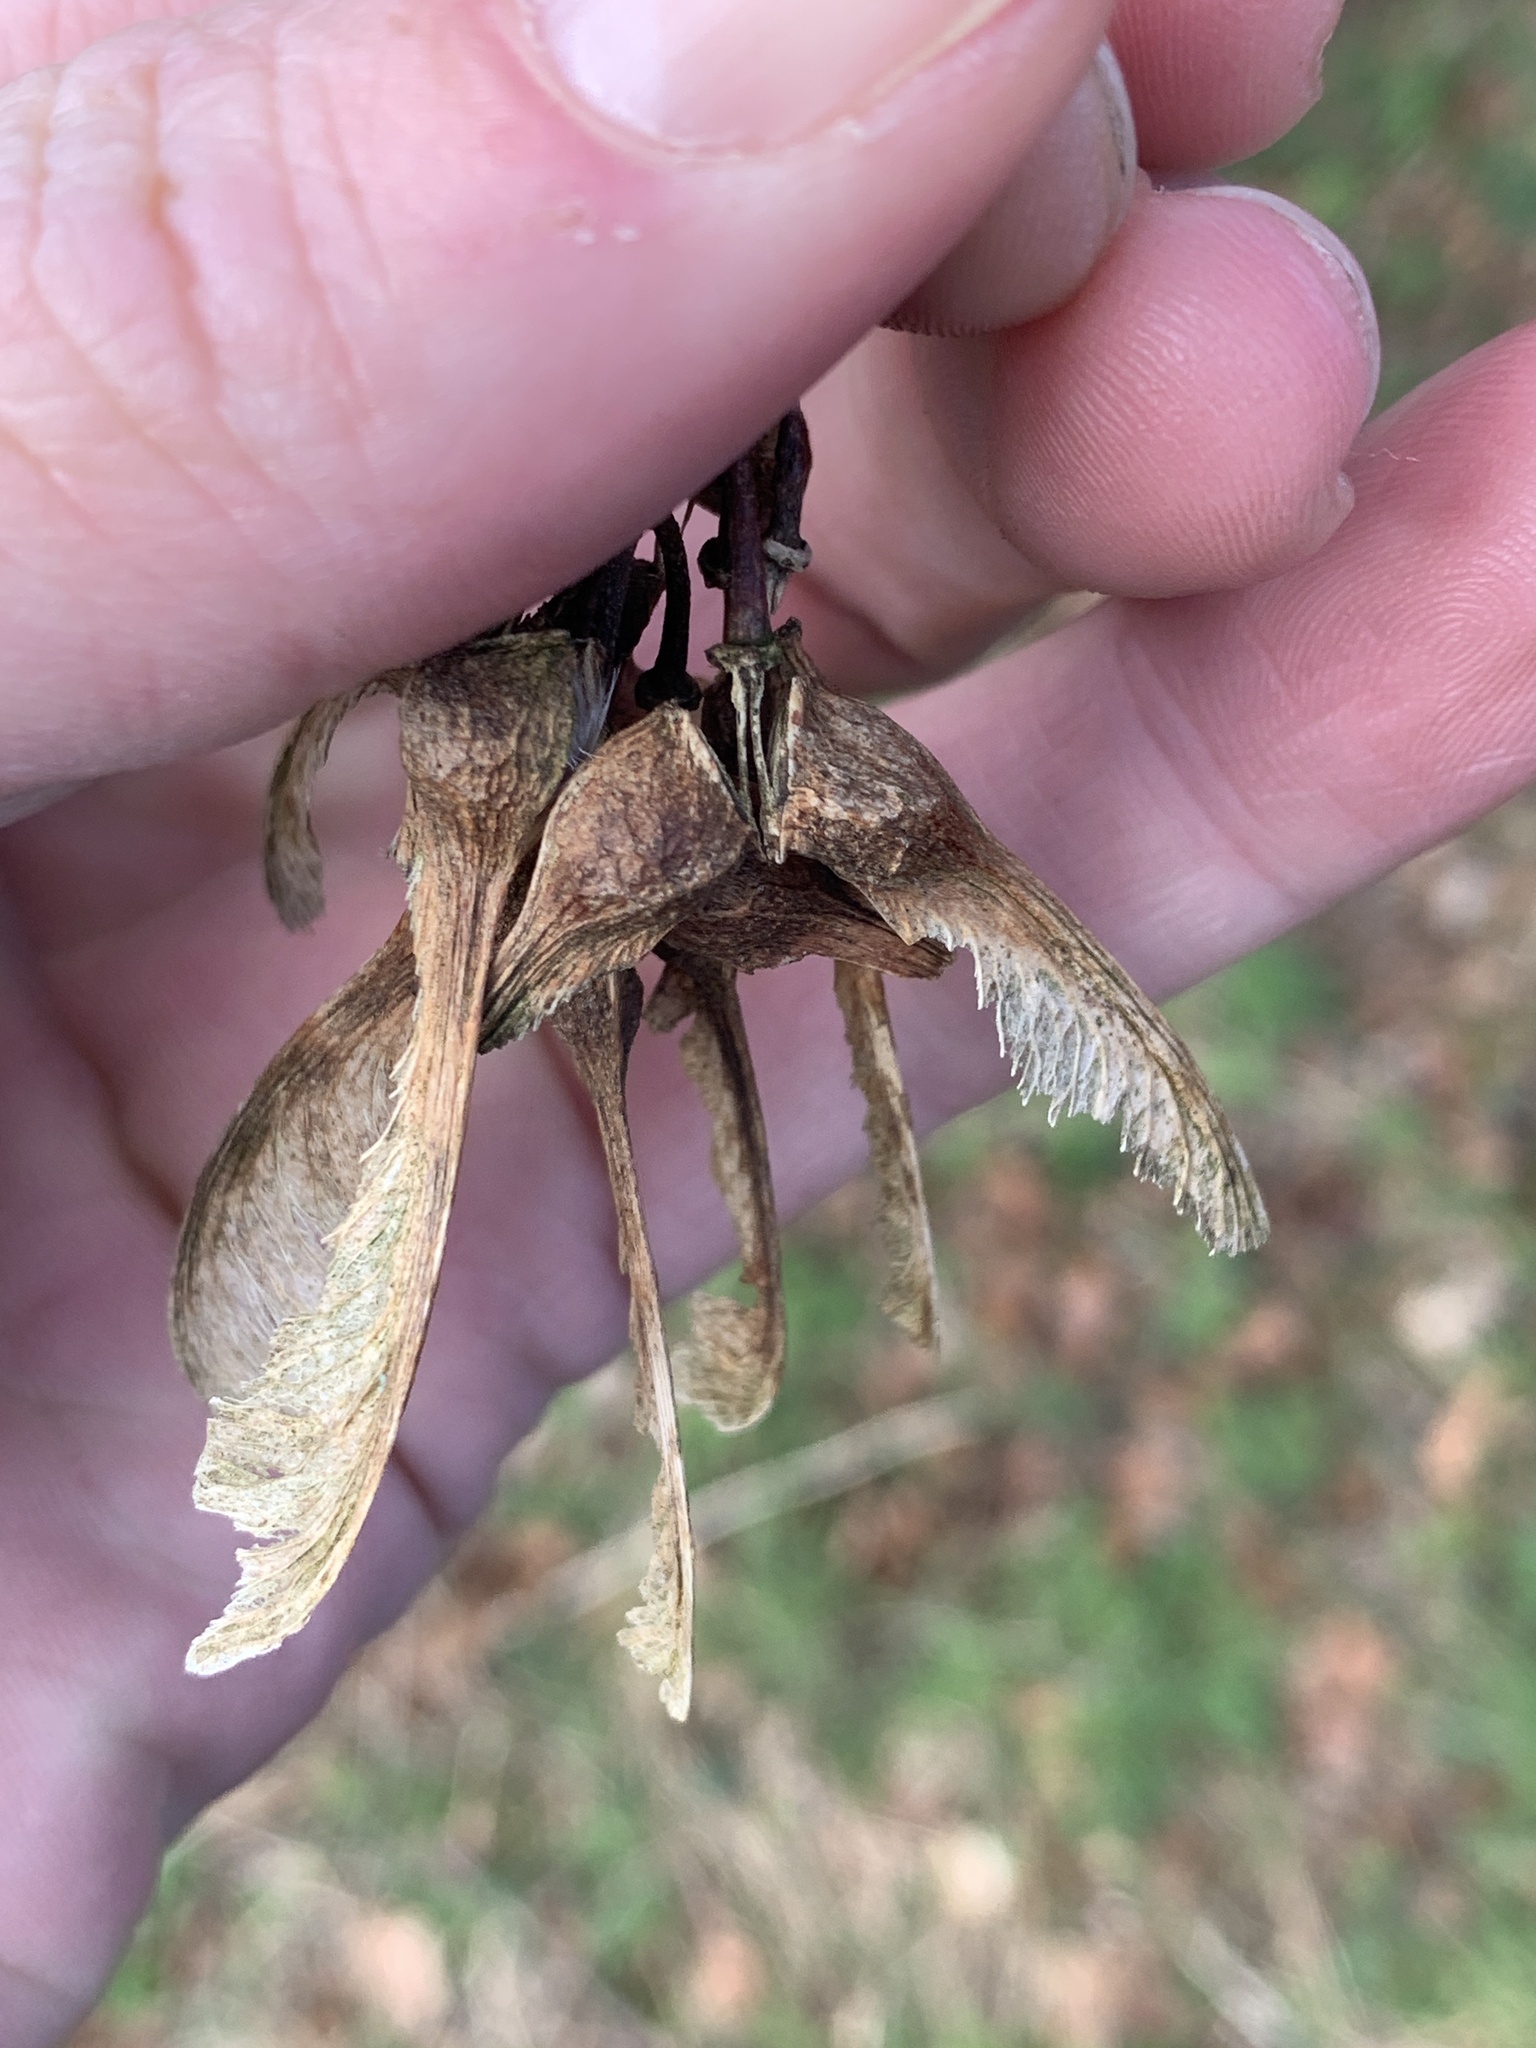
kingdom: Plantae
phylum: Tracheophyta
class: Magnoliopsida
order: Sapindales
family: Sapindaceae
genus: Acer
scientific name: Acer pseudoplatanus
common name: Sycamore
